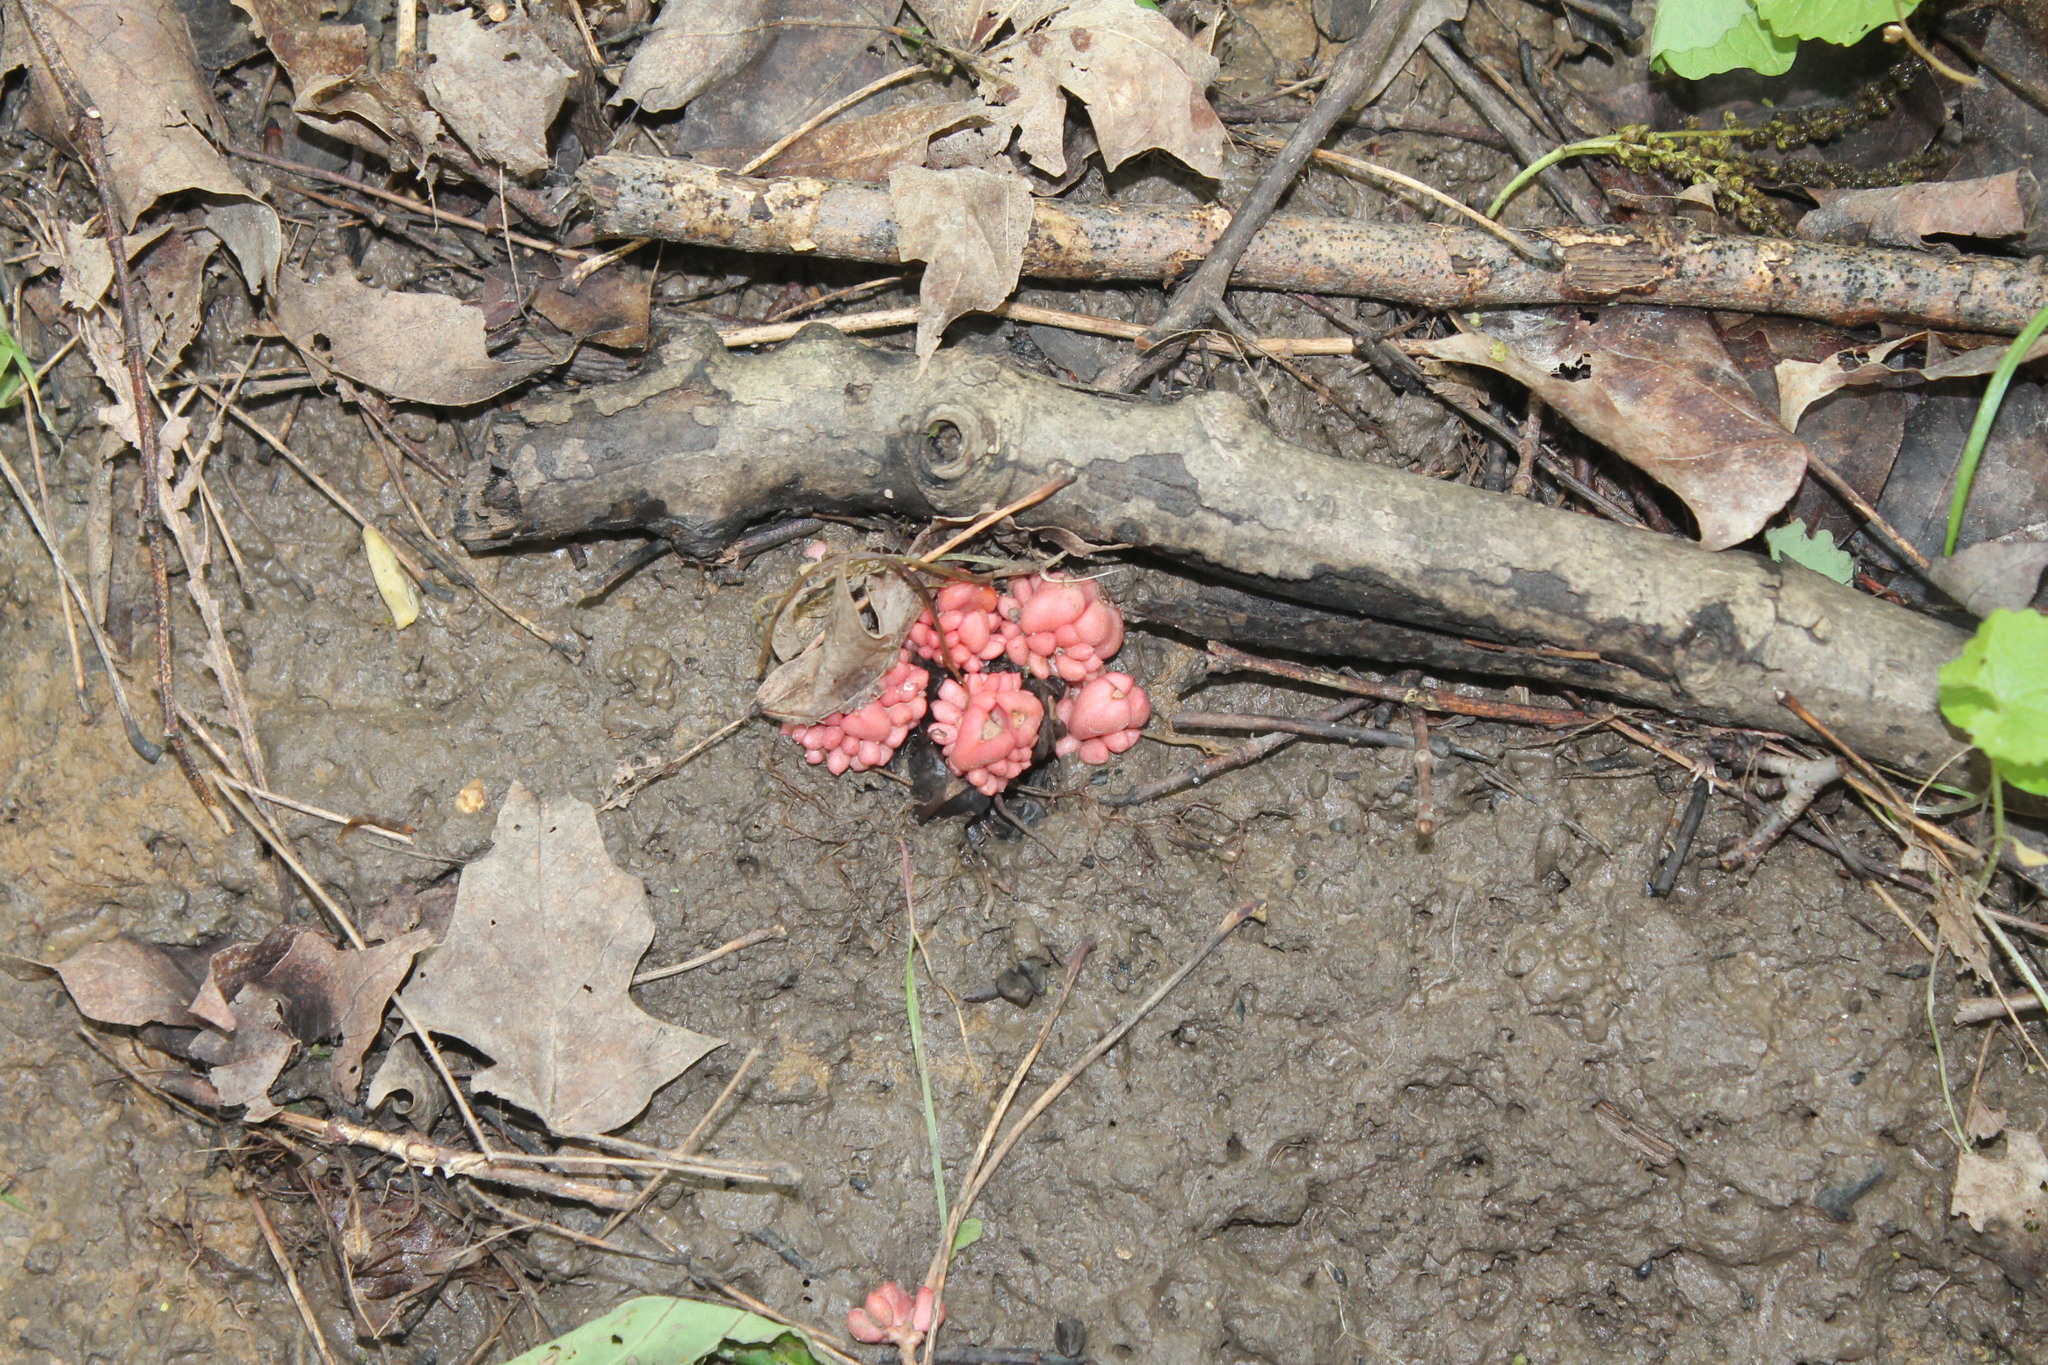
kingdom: Plantae
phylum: Tracheophyta
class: Magnoliopsida
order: Ranunculales
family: Papaveraceae
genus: Dicentra
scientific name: Dicentra cucullaria
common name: Dutchman's breeches
